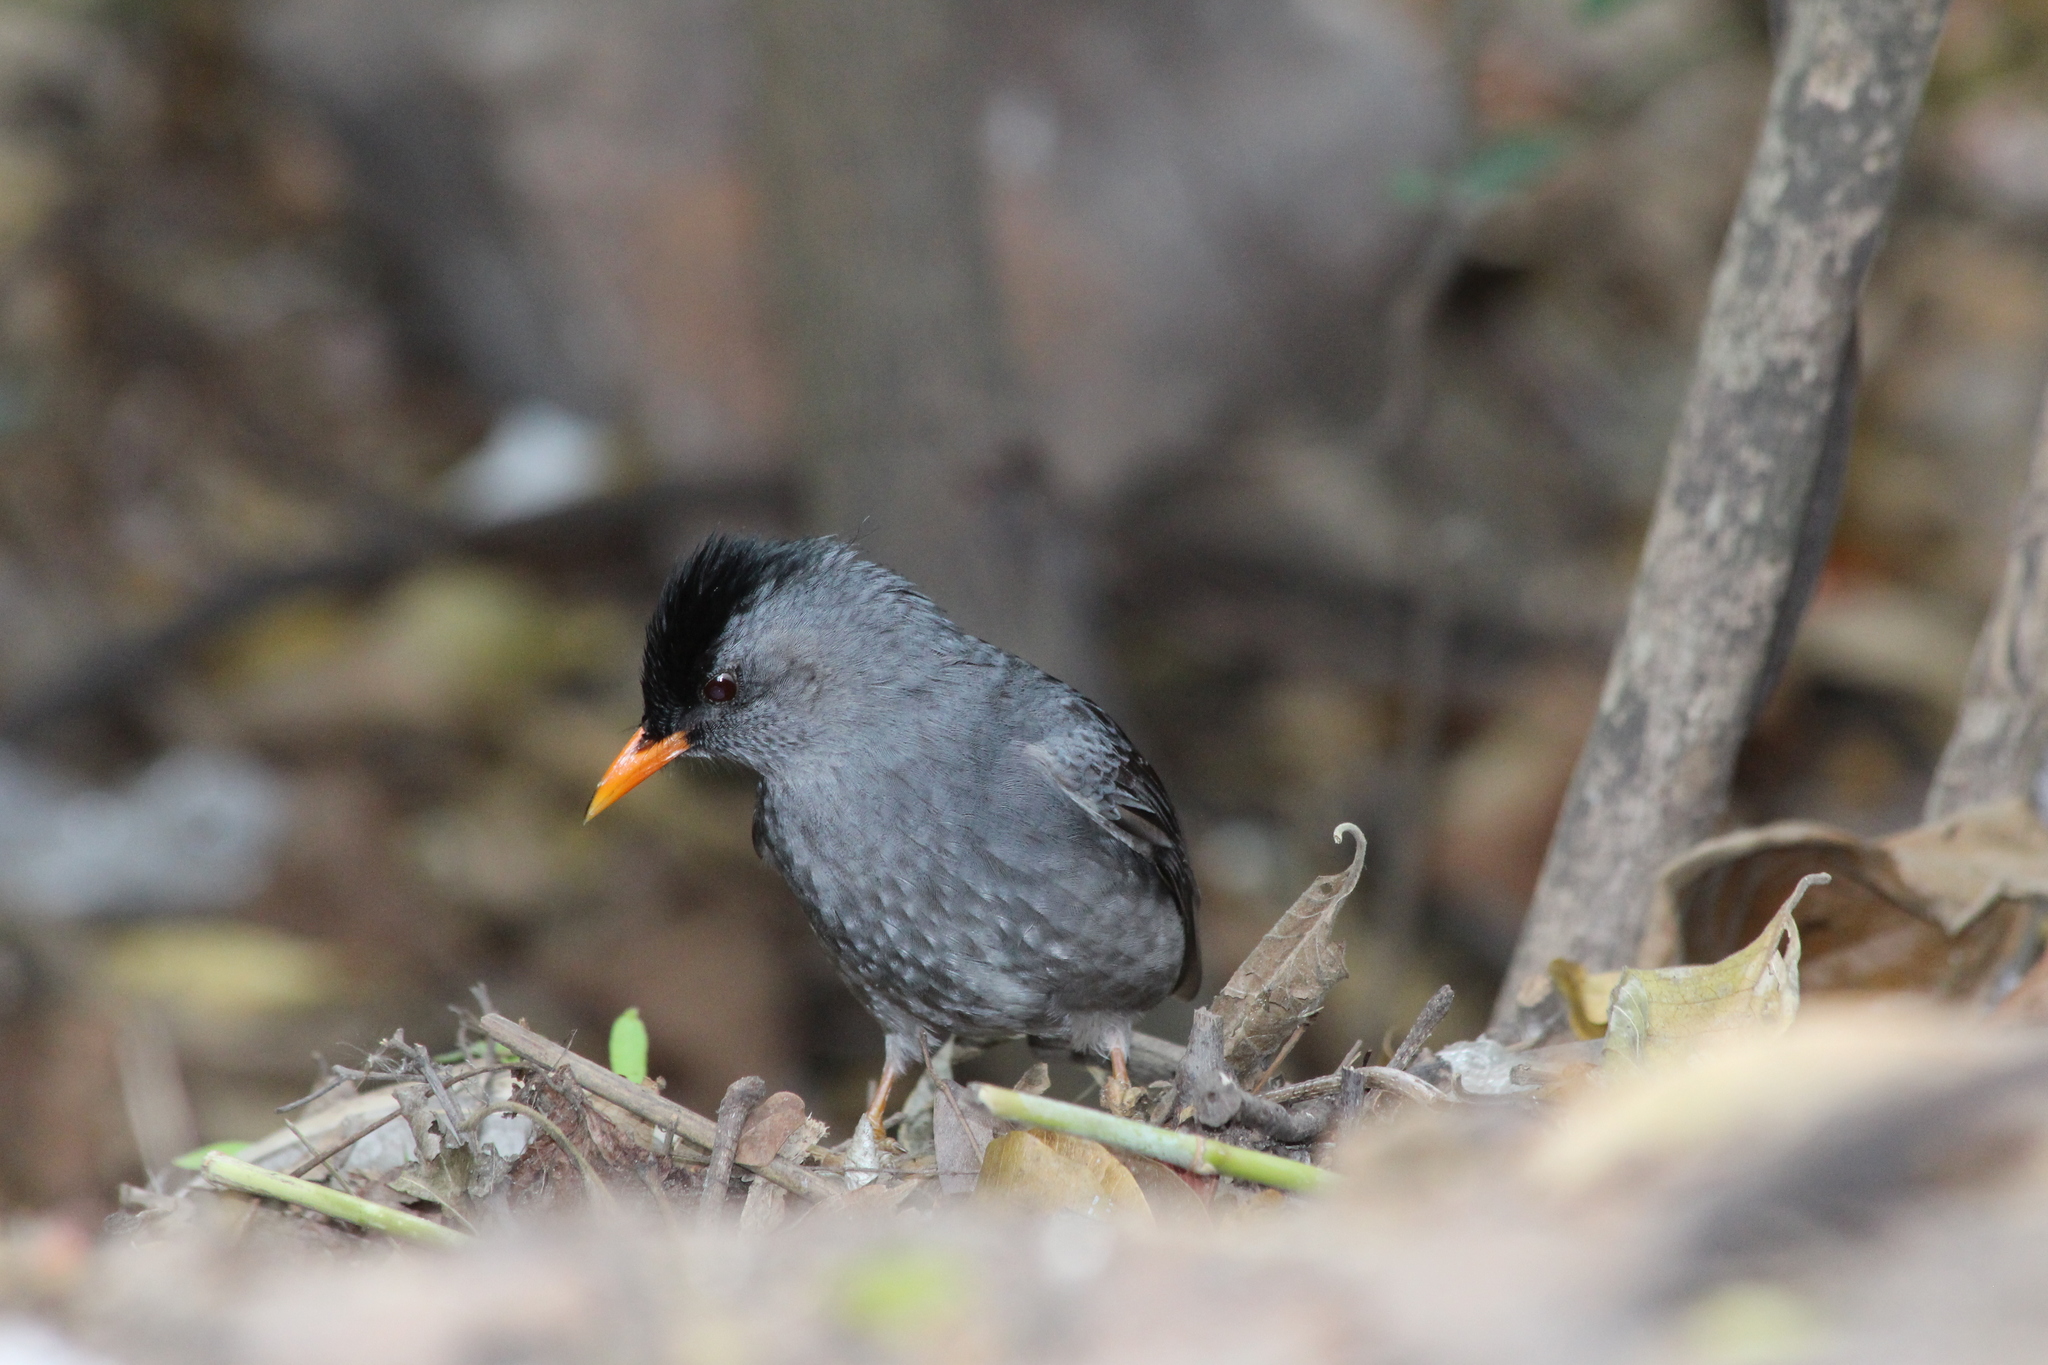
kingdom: Animalia
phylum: Chordata
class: Aves
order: Passeriformes
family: Pycnonotidae
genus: Hypsipetes
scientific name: Hypsipetes madagascariensis
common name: Malagasy bulbul
